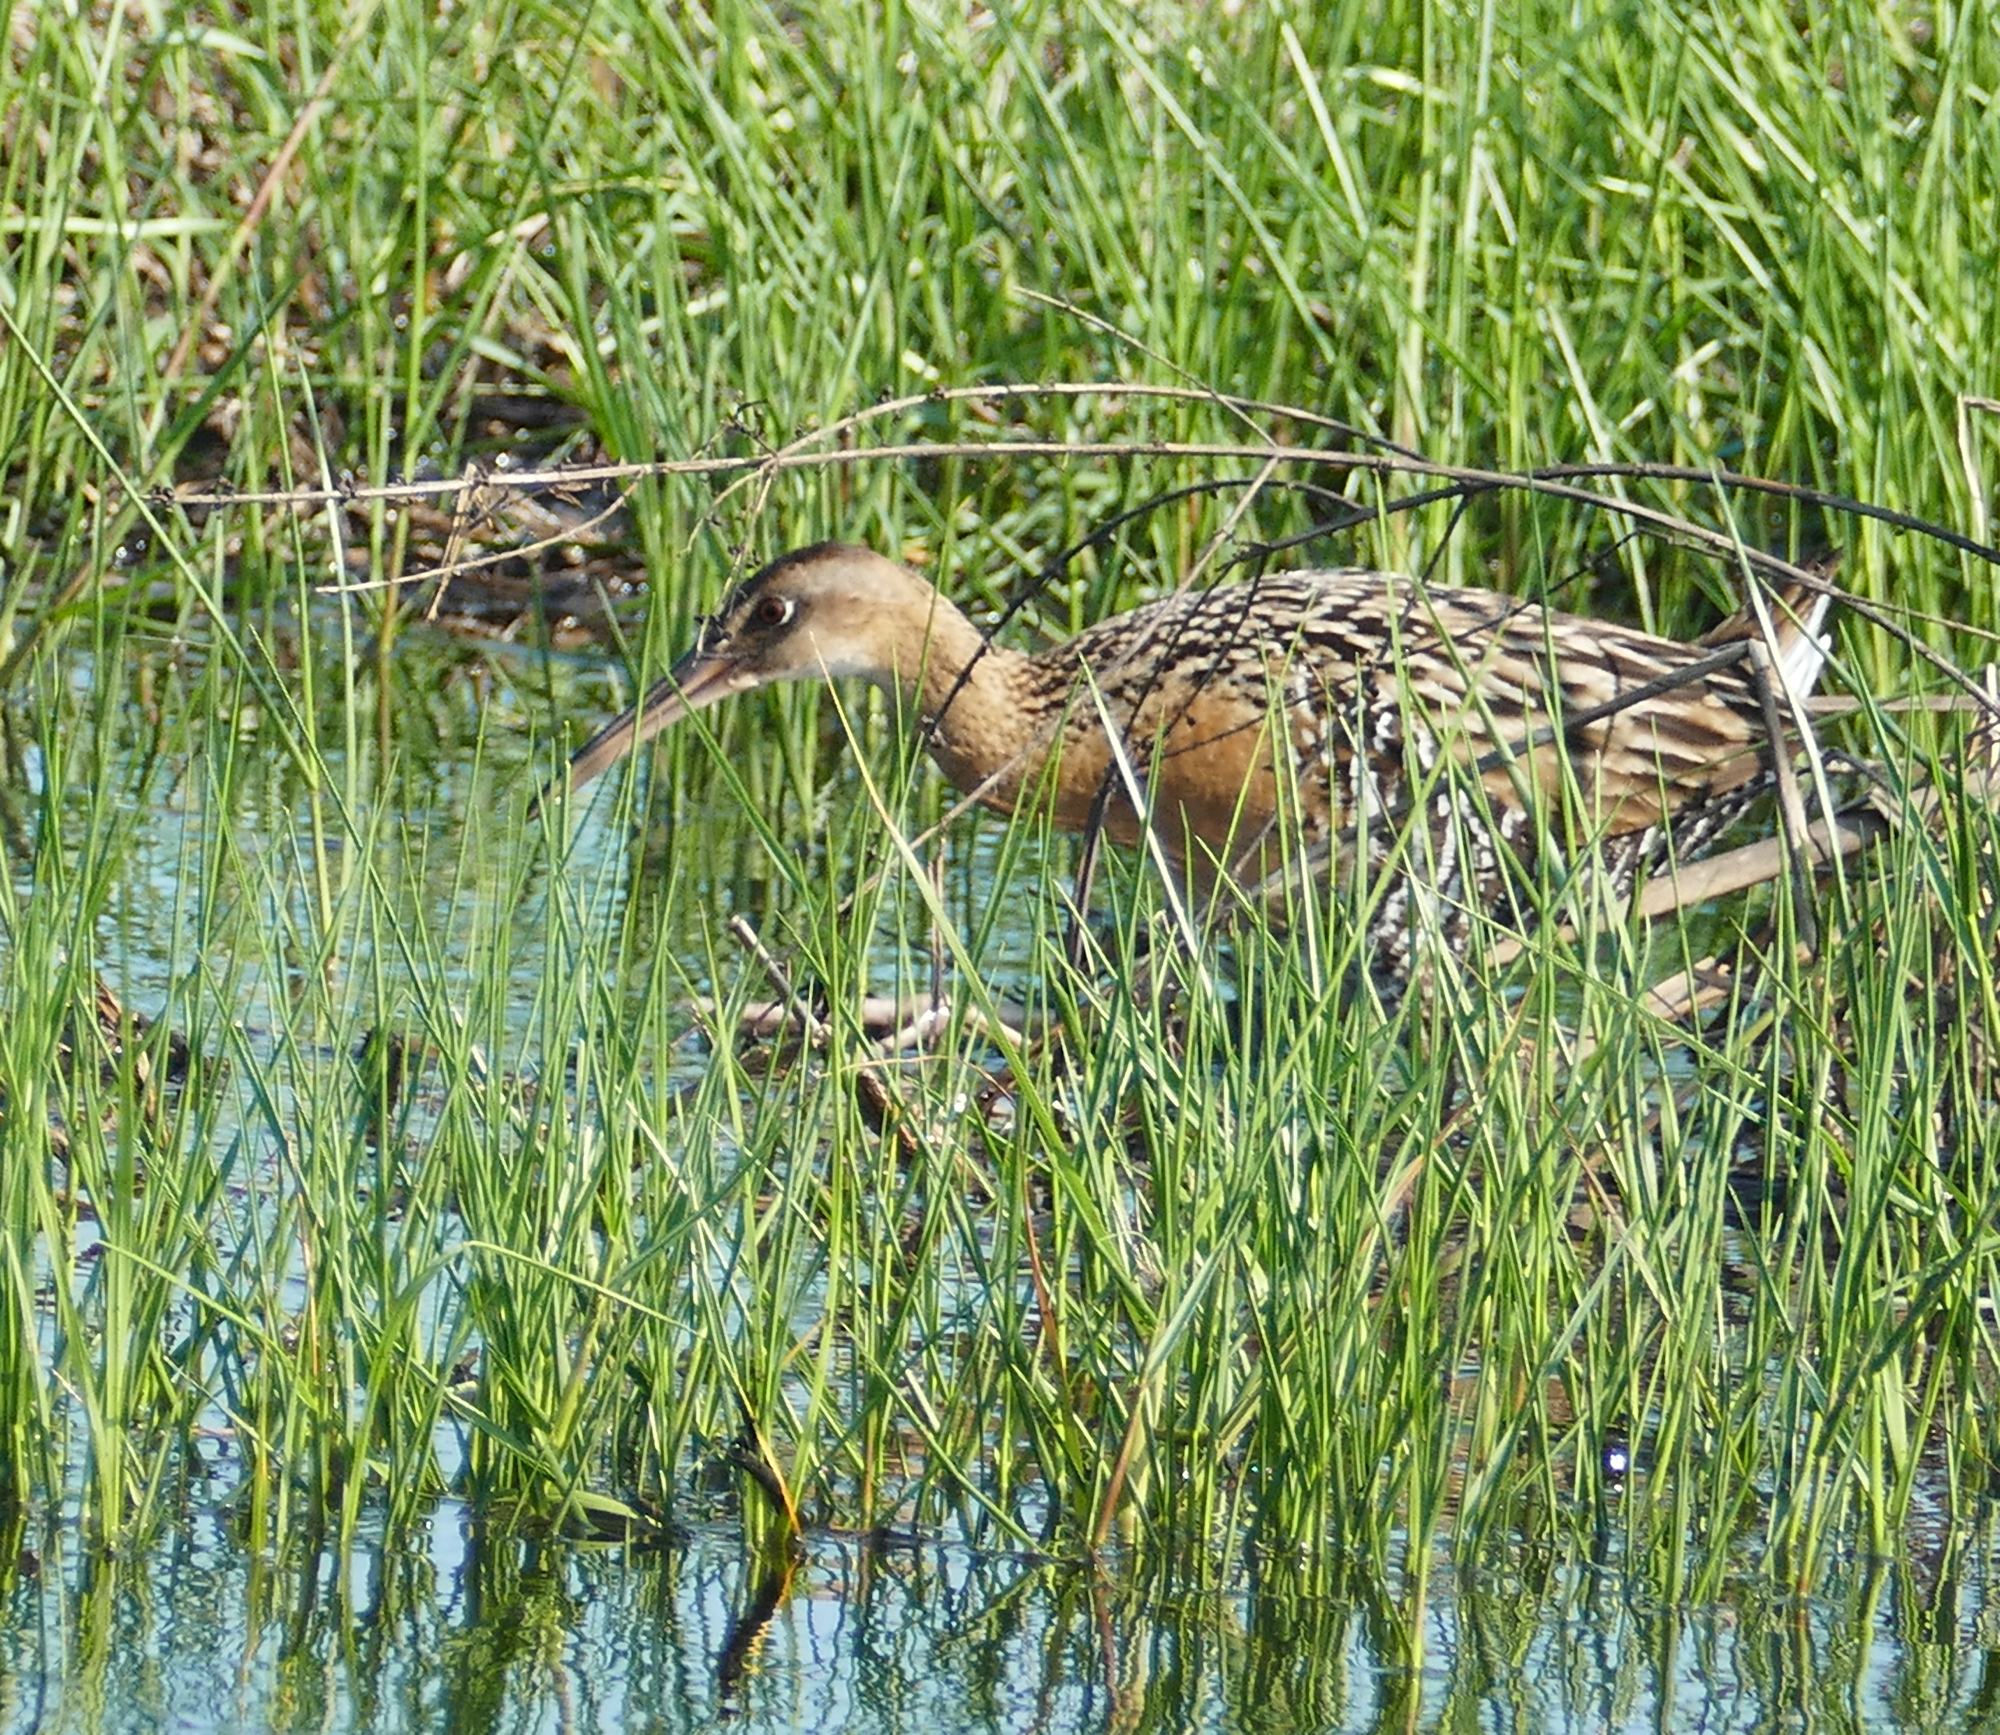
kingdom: Animalia
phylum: Chordata
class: Aves
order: Gruiformes
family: Rallidae
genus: Rallus
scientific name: Rallus elegans
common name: King rail
